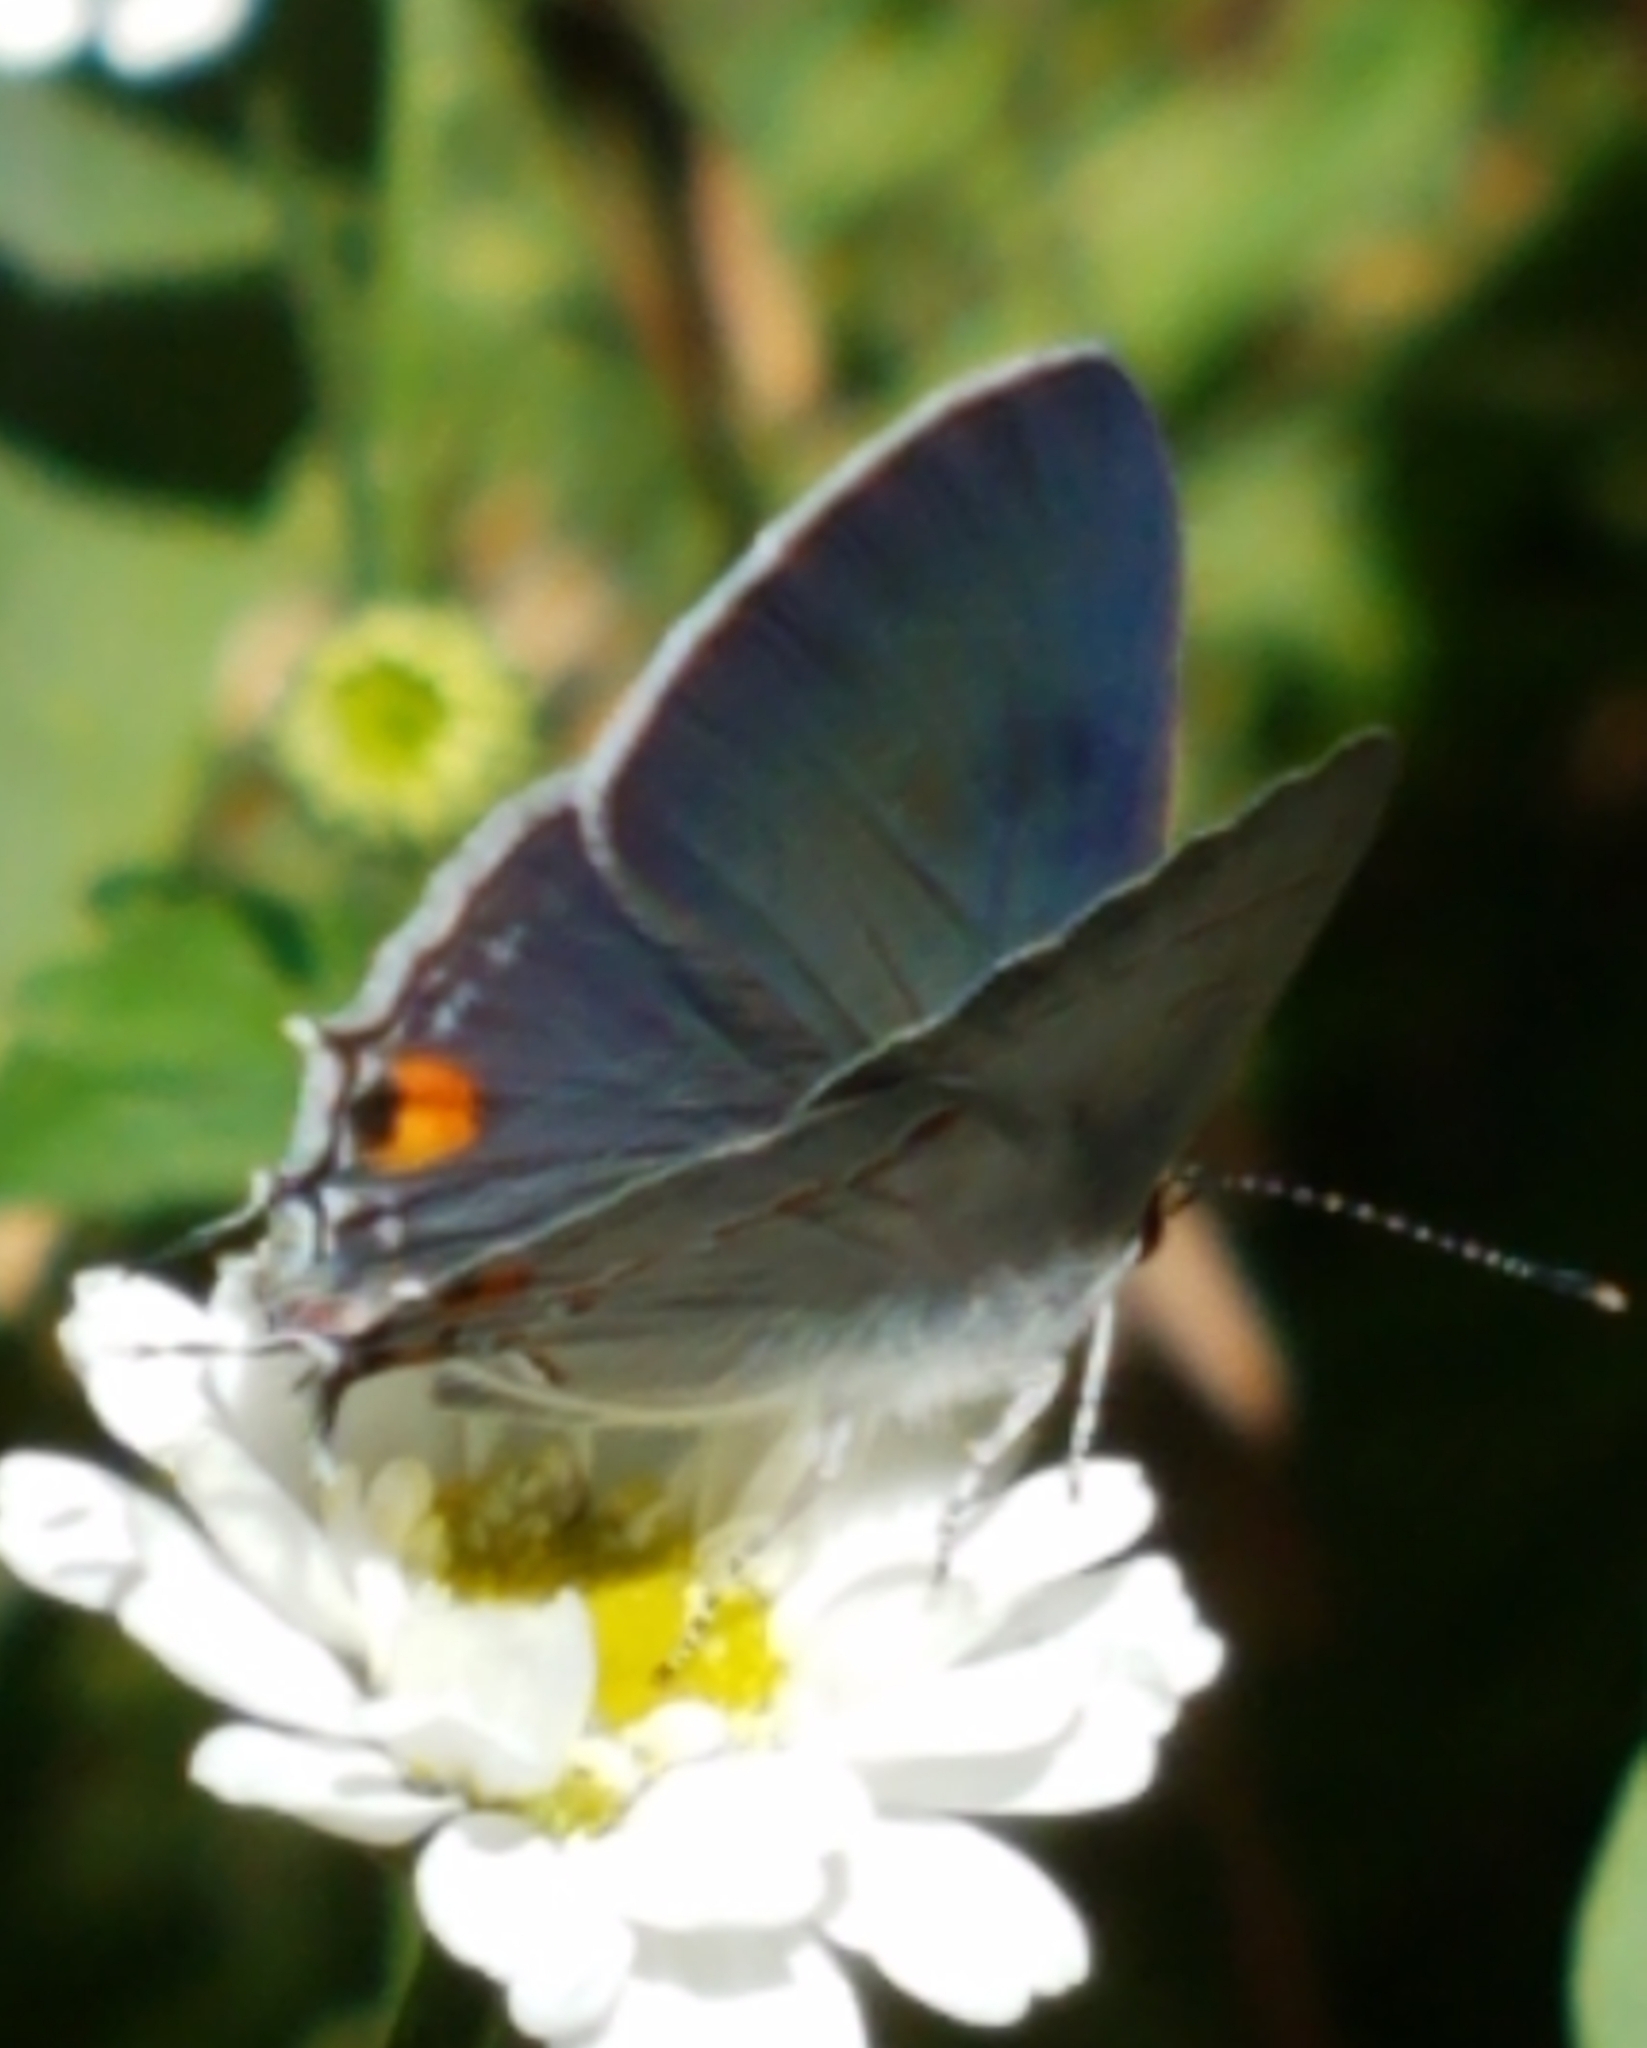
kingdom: Animalia
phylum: Arthropoda
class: Insecta
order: Lepidoptera
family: Lycaenidae
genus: Strymon
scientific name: Strymon melinus
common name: Gray hairstreak
